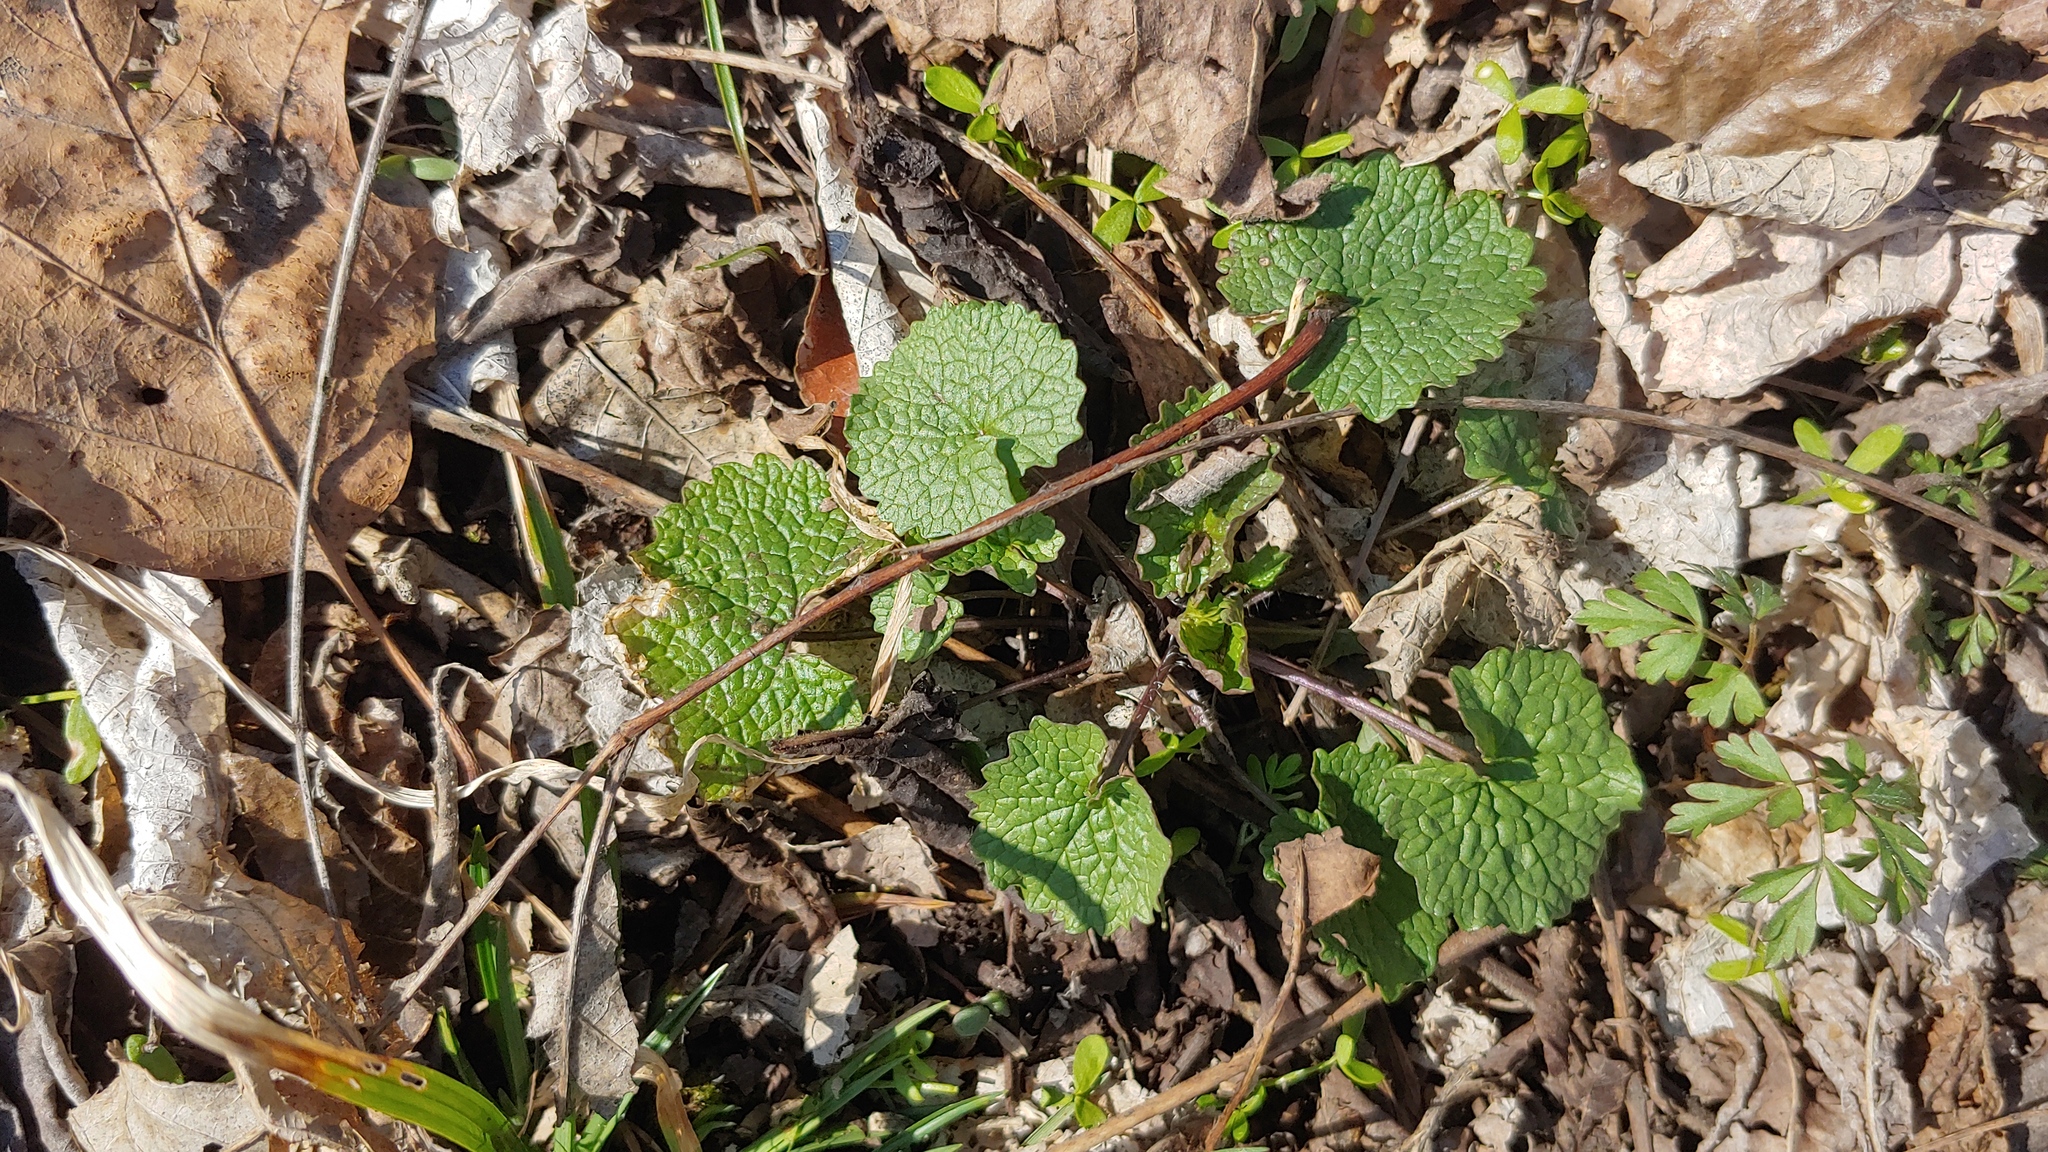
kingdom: Plantae
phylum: Tracheophyta
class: Magnoliopsida
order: Brassicales
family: Brassicaceae
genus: Alliaria
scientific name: Alliaria petiolata
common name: Garlic mustard
